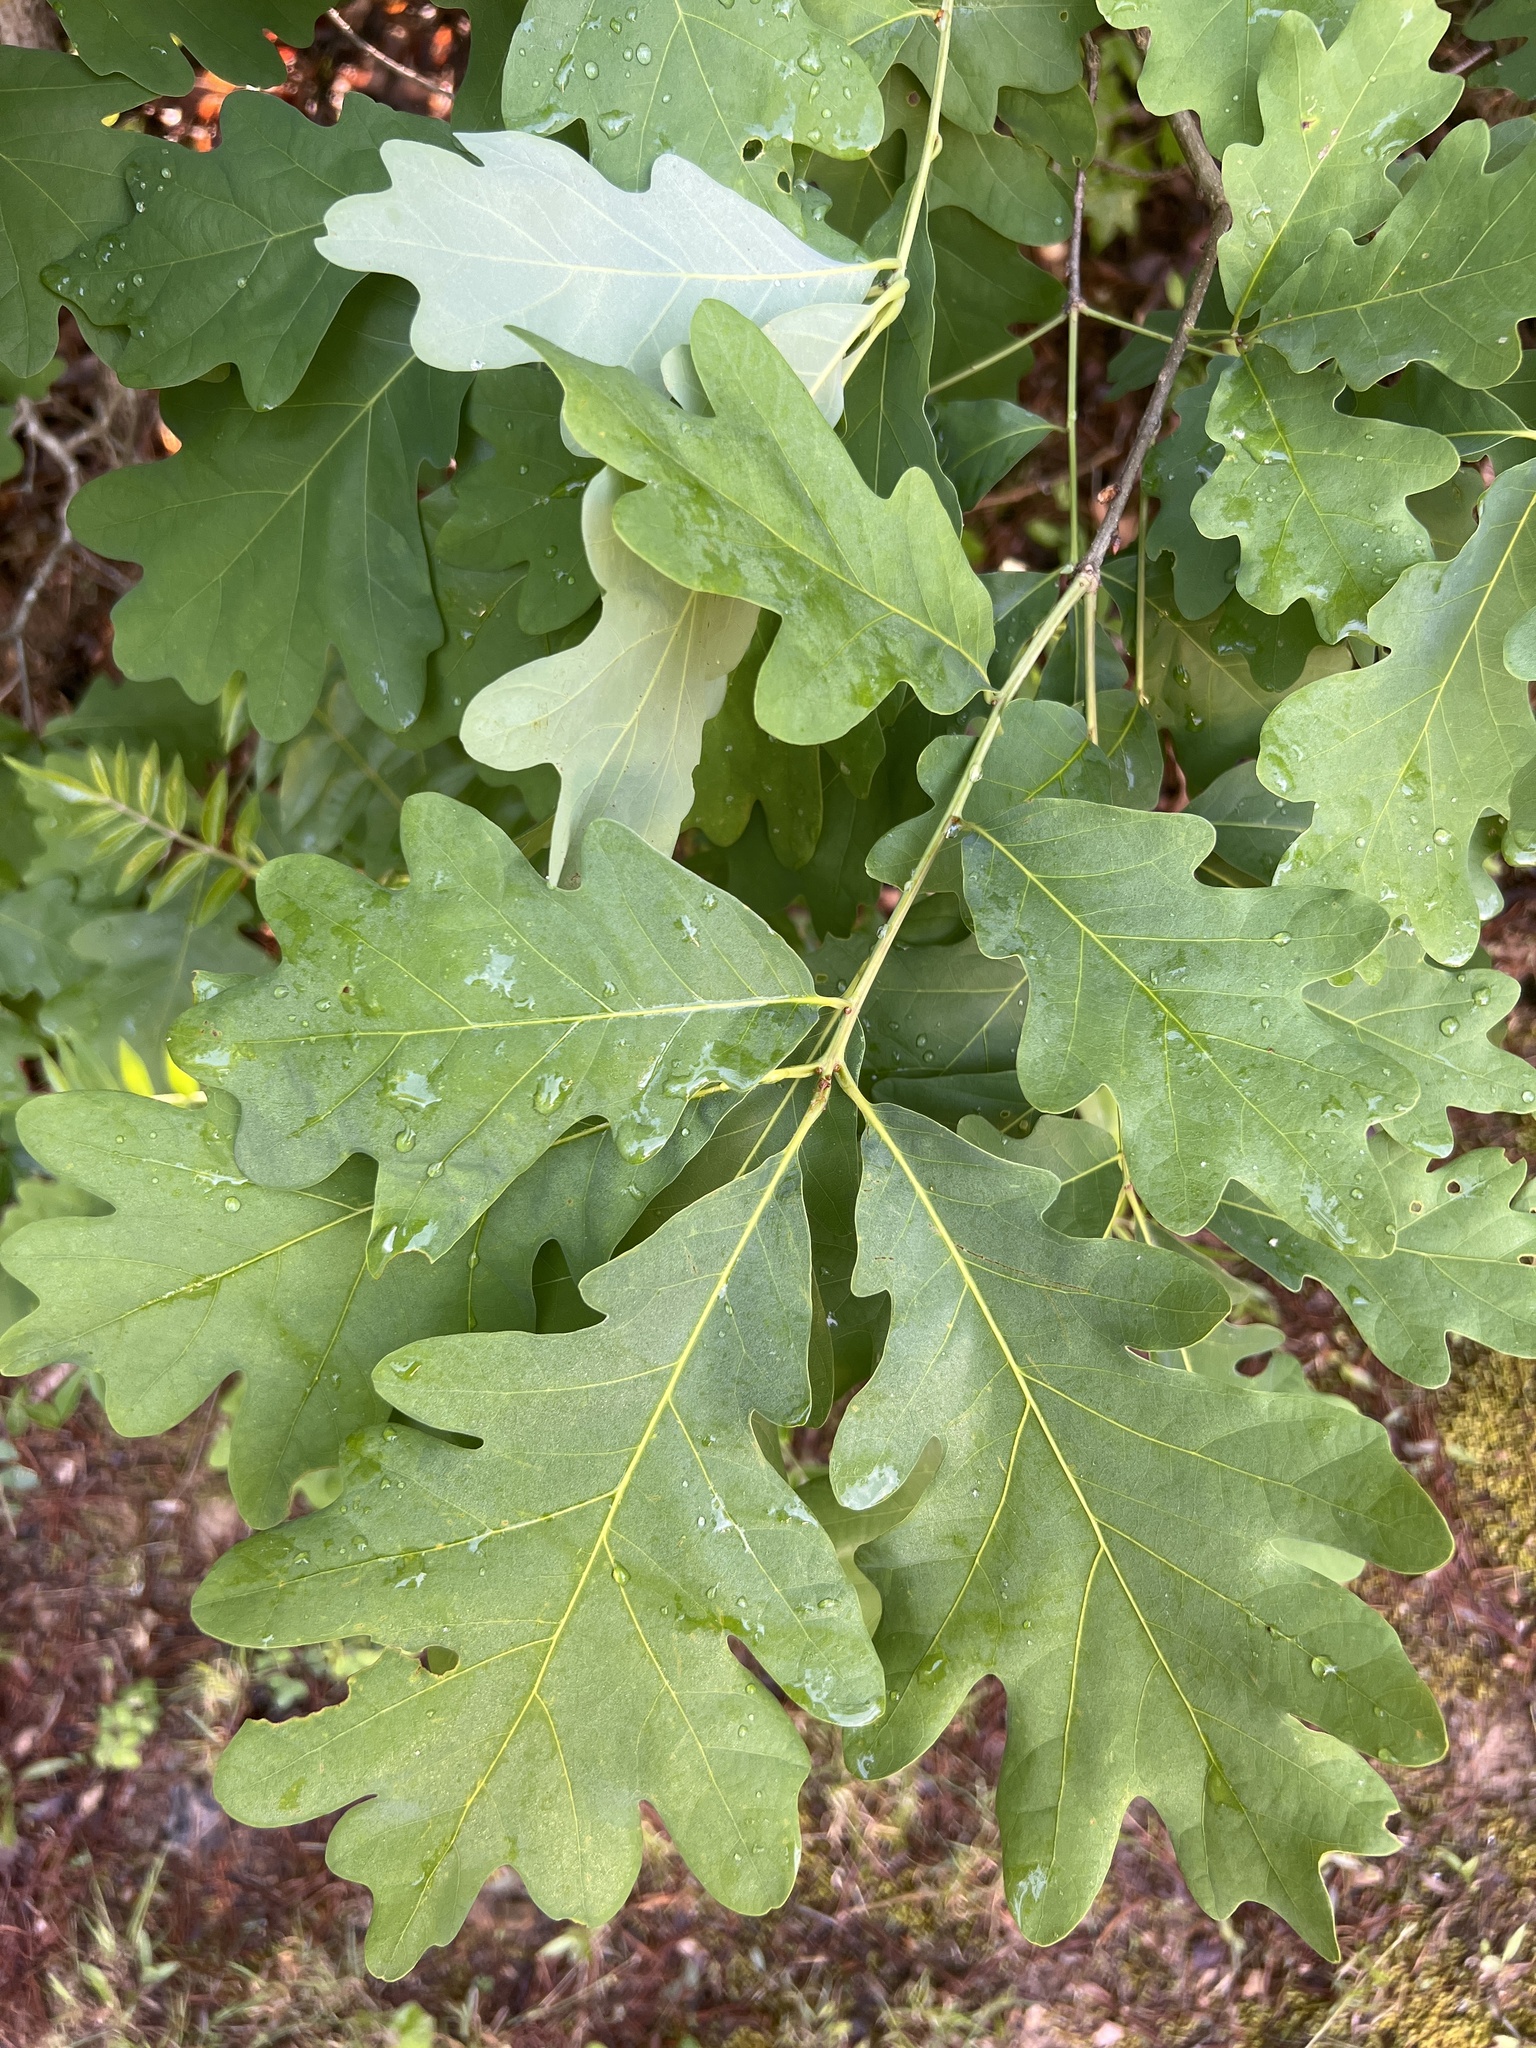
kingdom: Plantae
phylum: Tracheophyta
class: Magnoliopsida
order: Fagales
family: Fagaceae
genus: Quercus
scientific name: Quercus alba
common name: White oak
